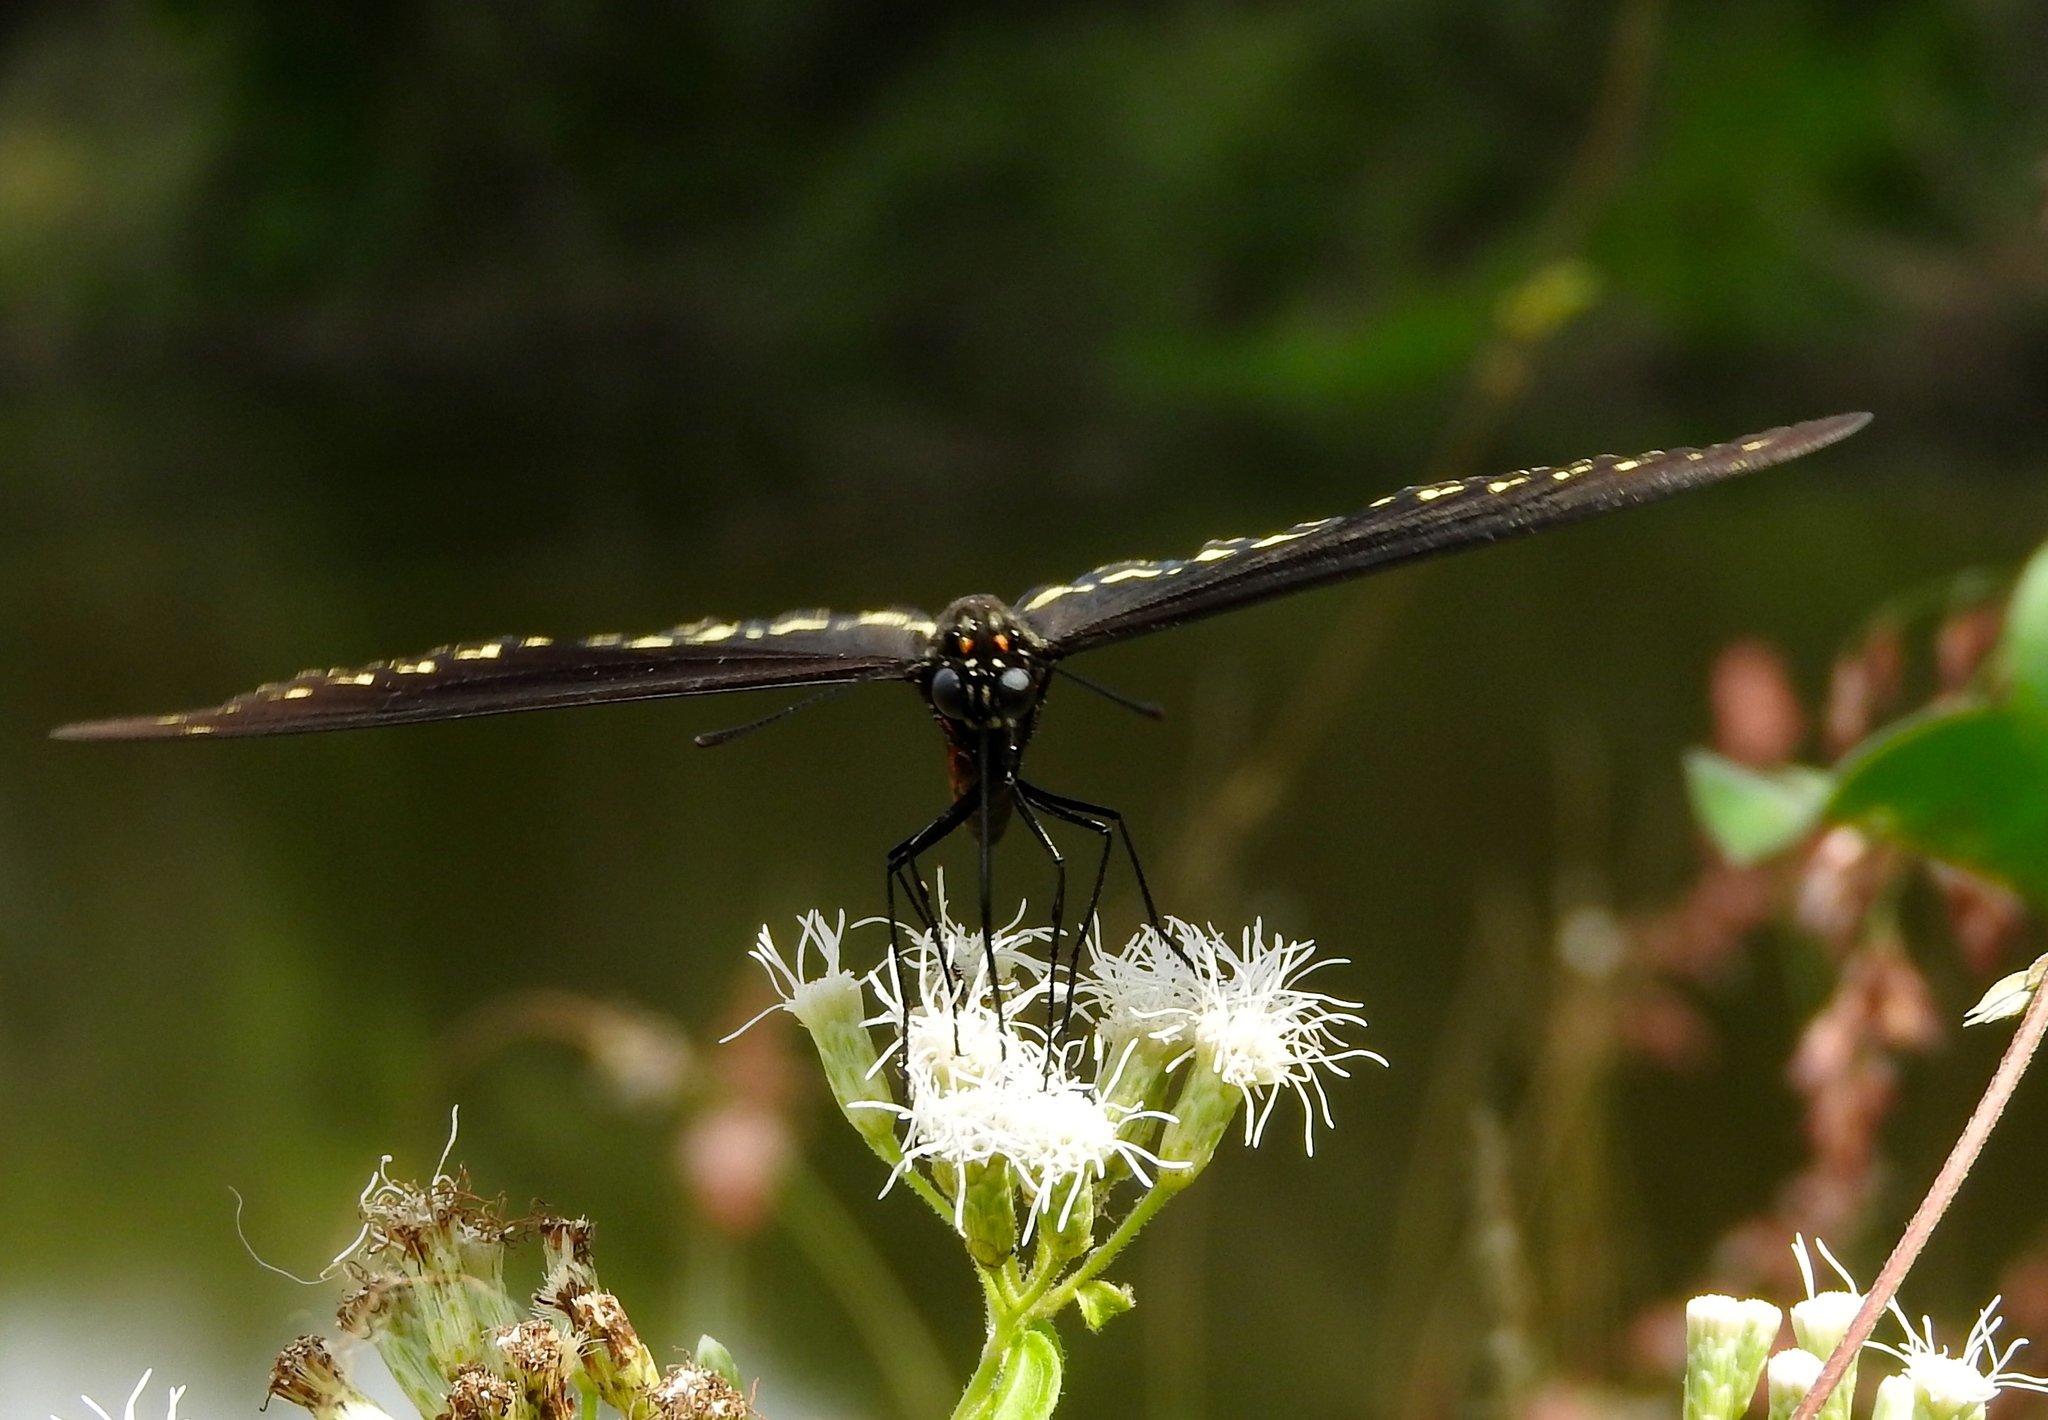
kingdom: Animalia
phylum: Arthropoda
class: Insecta
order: Lepidoptera
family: Papilionidae
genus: Battus
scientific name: Battus polydamas
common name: Polydamas swallowtail
